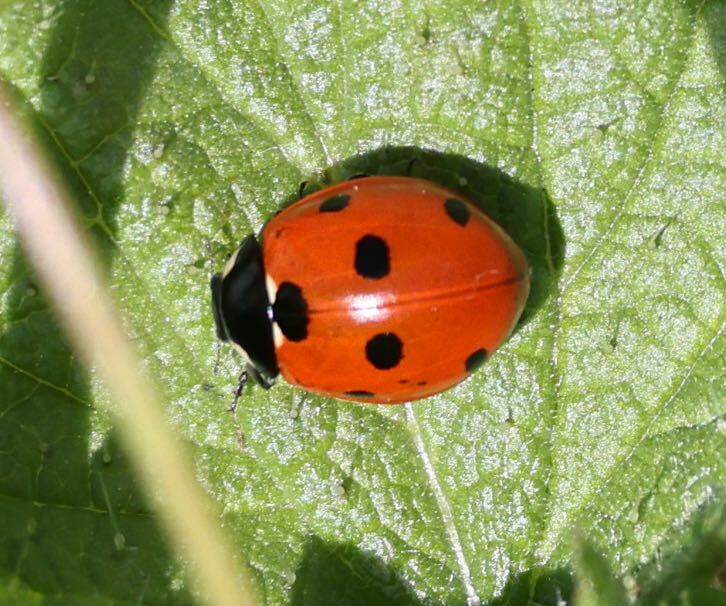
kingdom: Animalia
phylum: Arthropoda
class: Insecta
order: Coleoptera
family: Coccinellidae
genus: Coccinella
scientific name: Coccinella septempunctata
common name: Sevenspotted lady beetle
